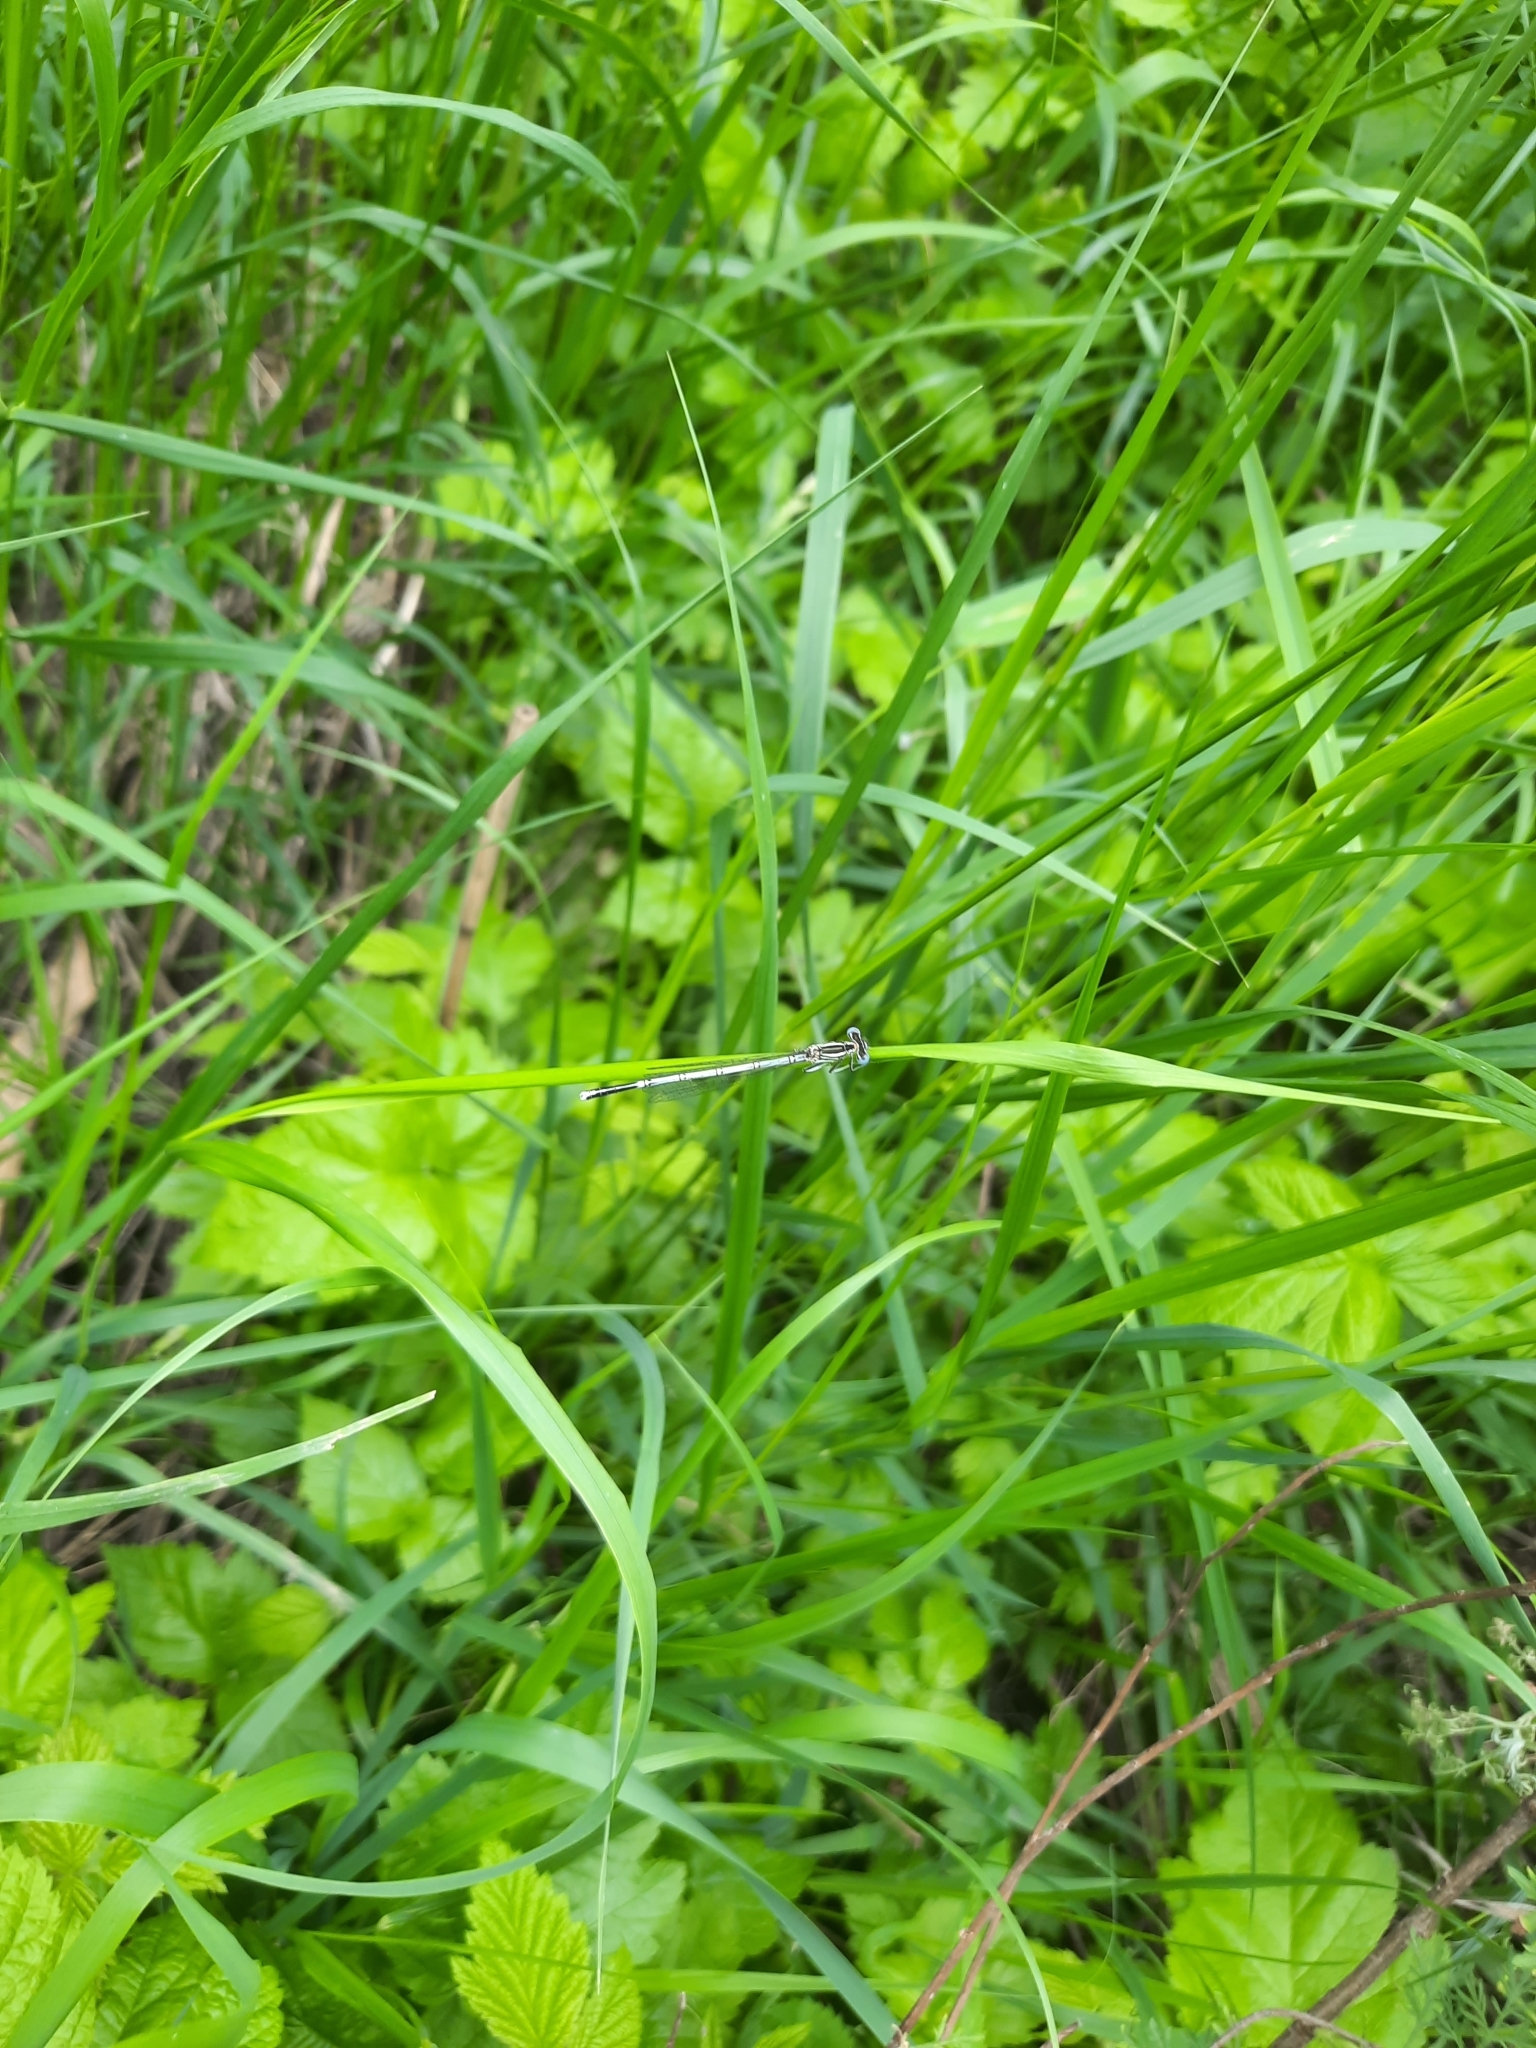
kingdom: Animalia
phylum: Arthropoda
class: Insecta
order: Odonata
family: Platycnemididae
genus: Platycnemis
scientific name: Platycnemis pennipes
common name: White-legged damselfly
